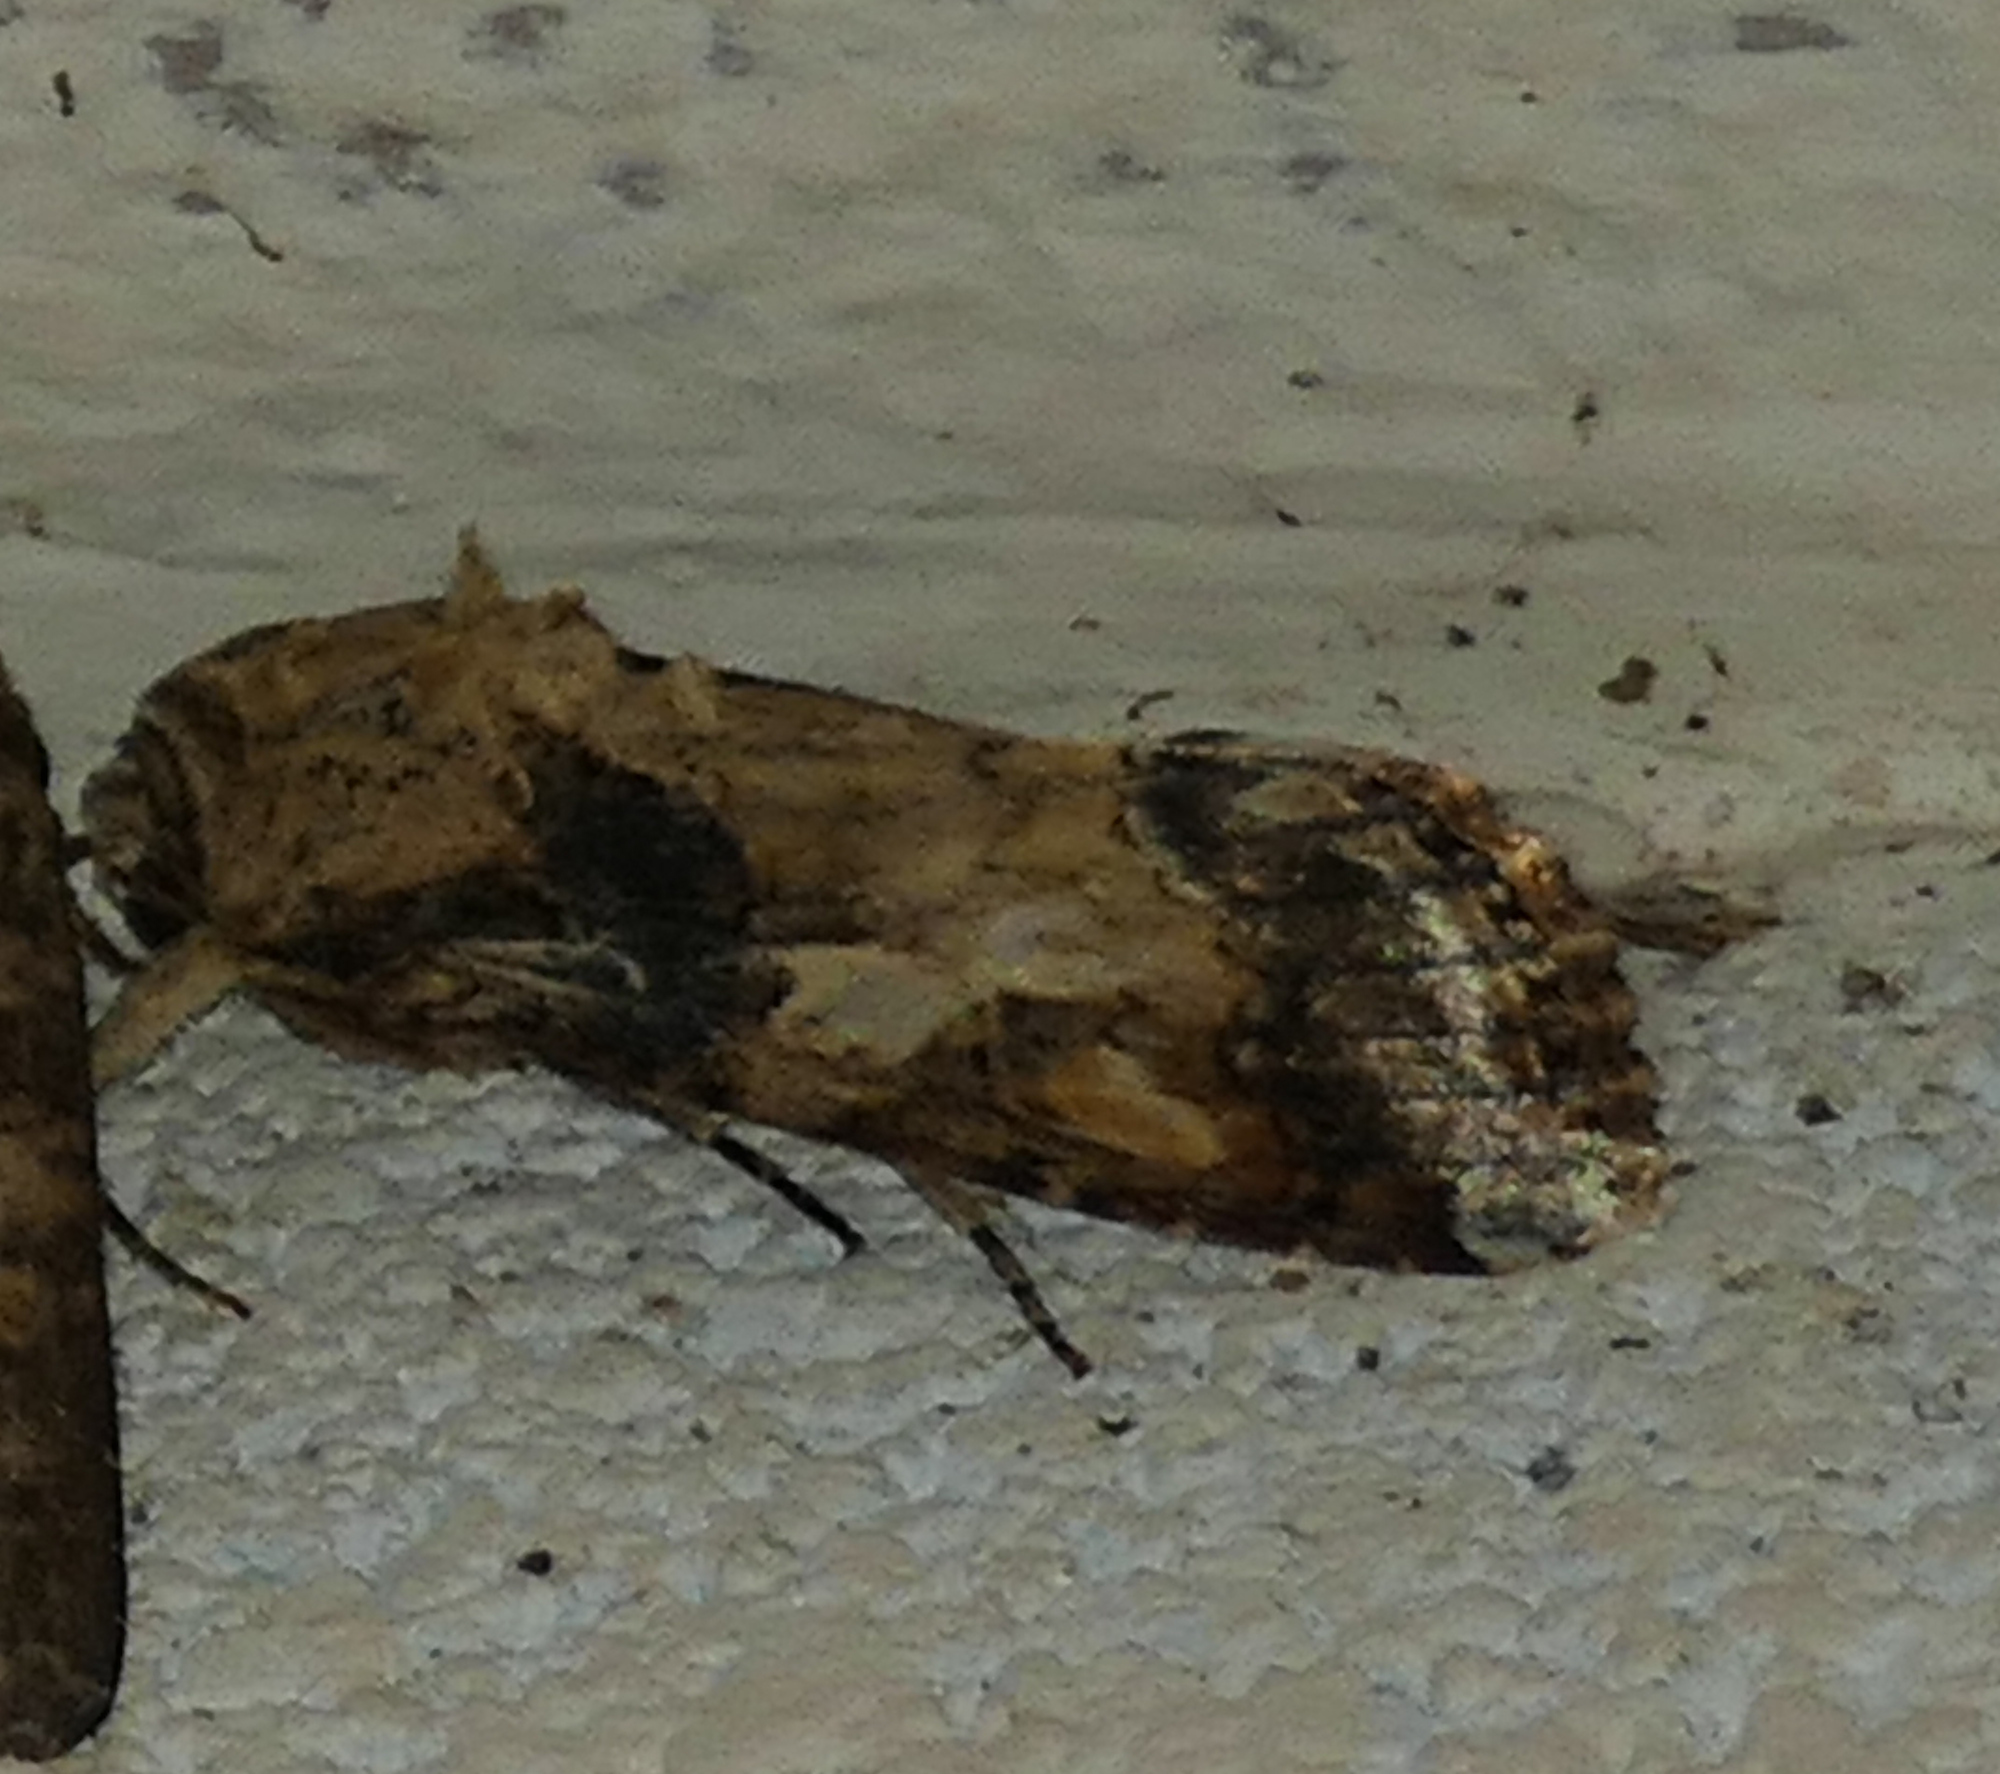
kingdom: Animalia
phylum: Arthropoda
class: Insecta
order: Lepidoptera
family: Noctuidae
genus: Spodoptera
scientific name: Spodoptera latifascia
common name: Velvet armyworm moth
